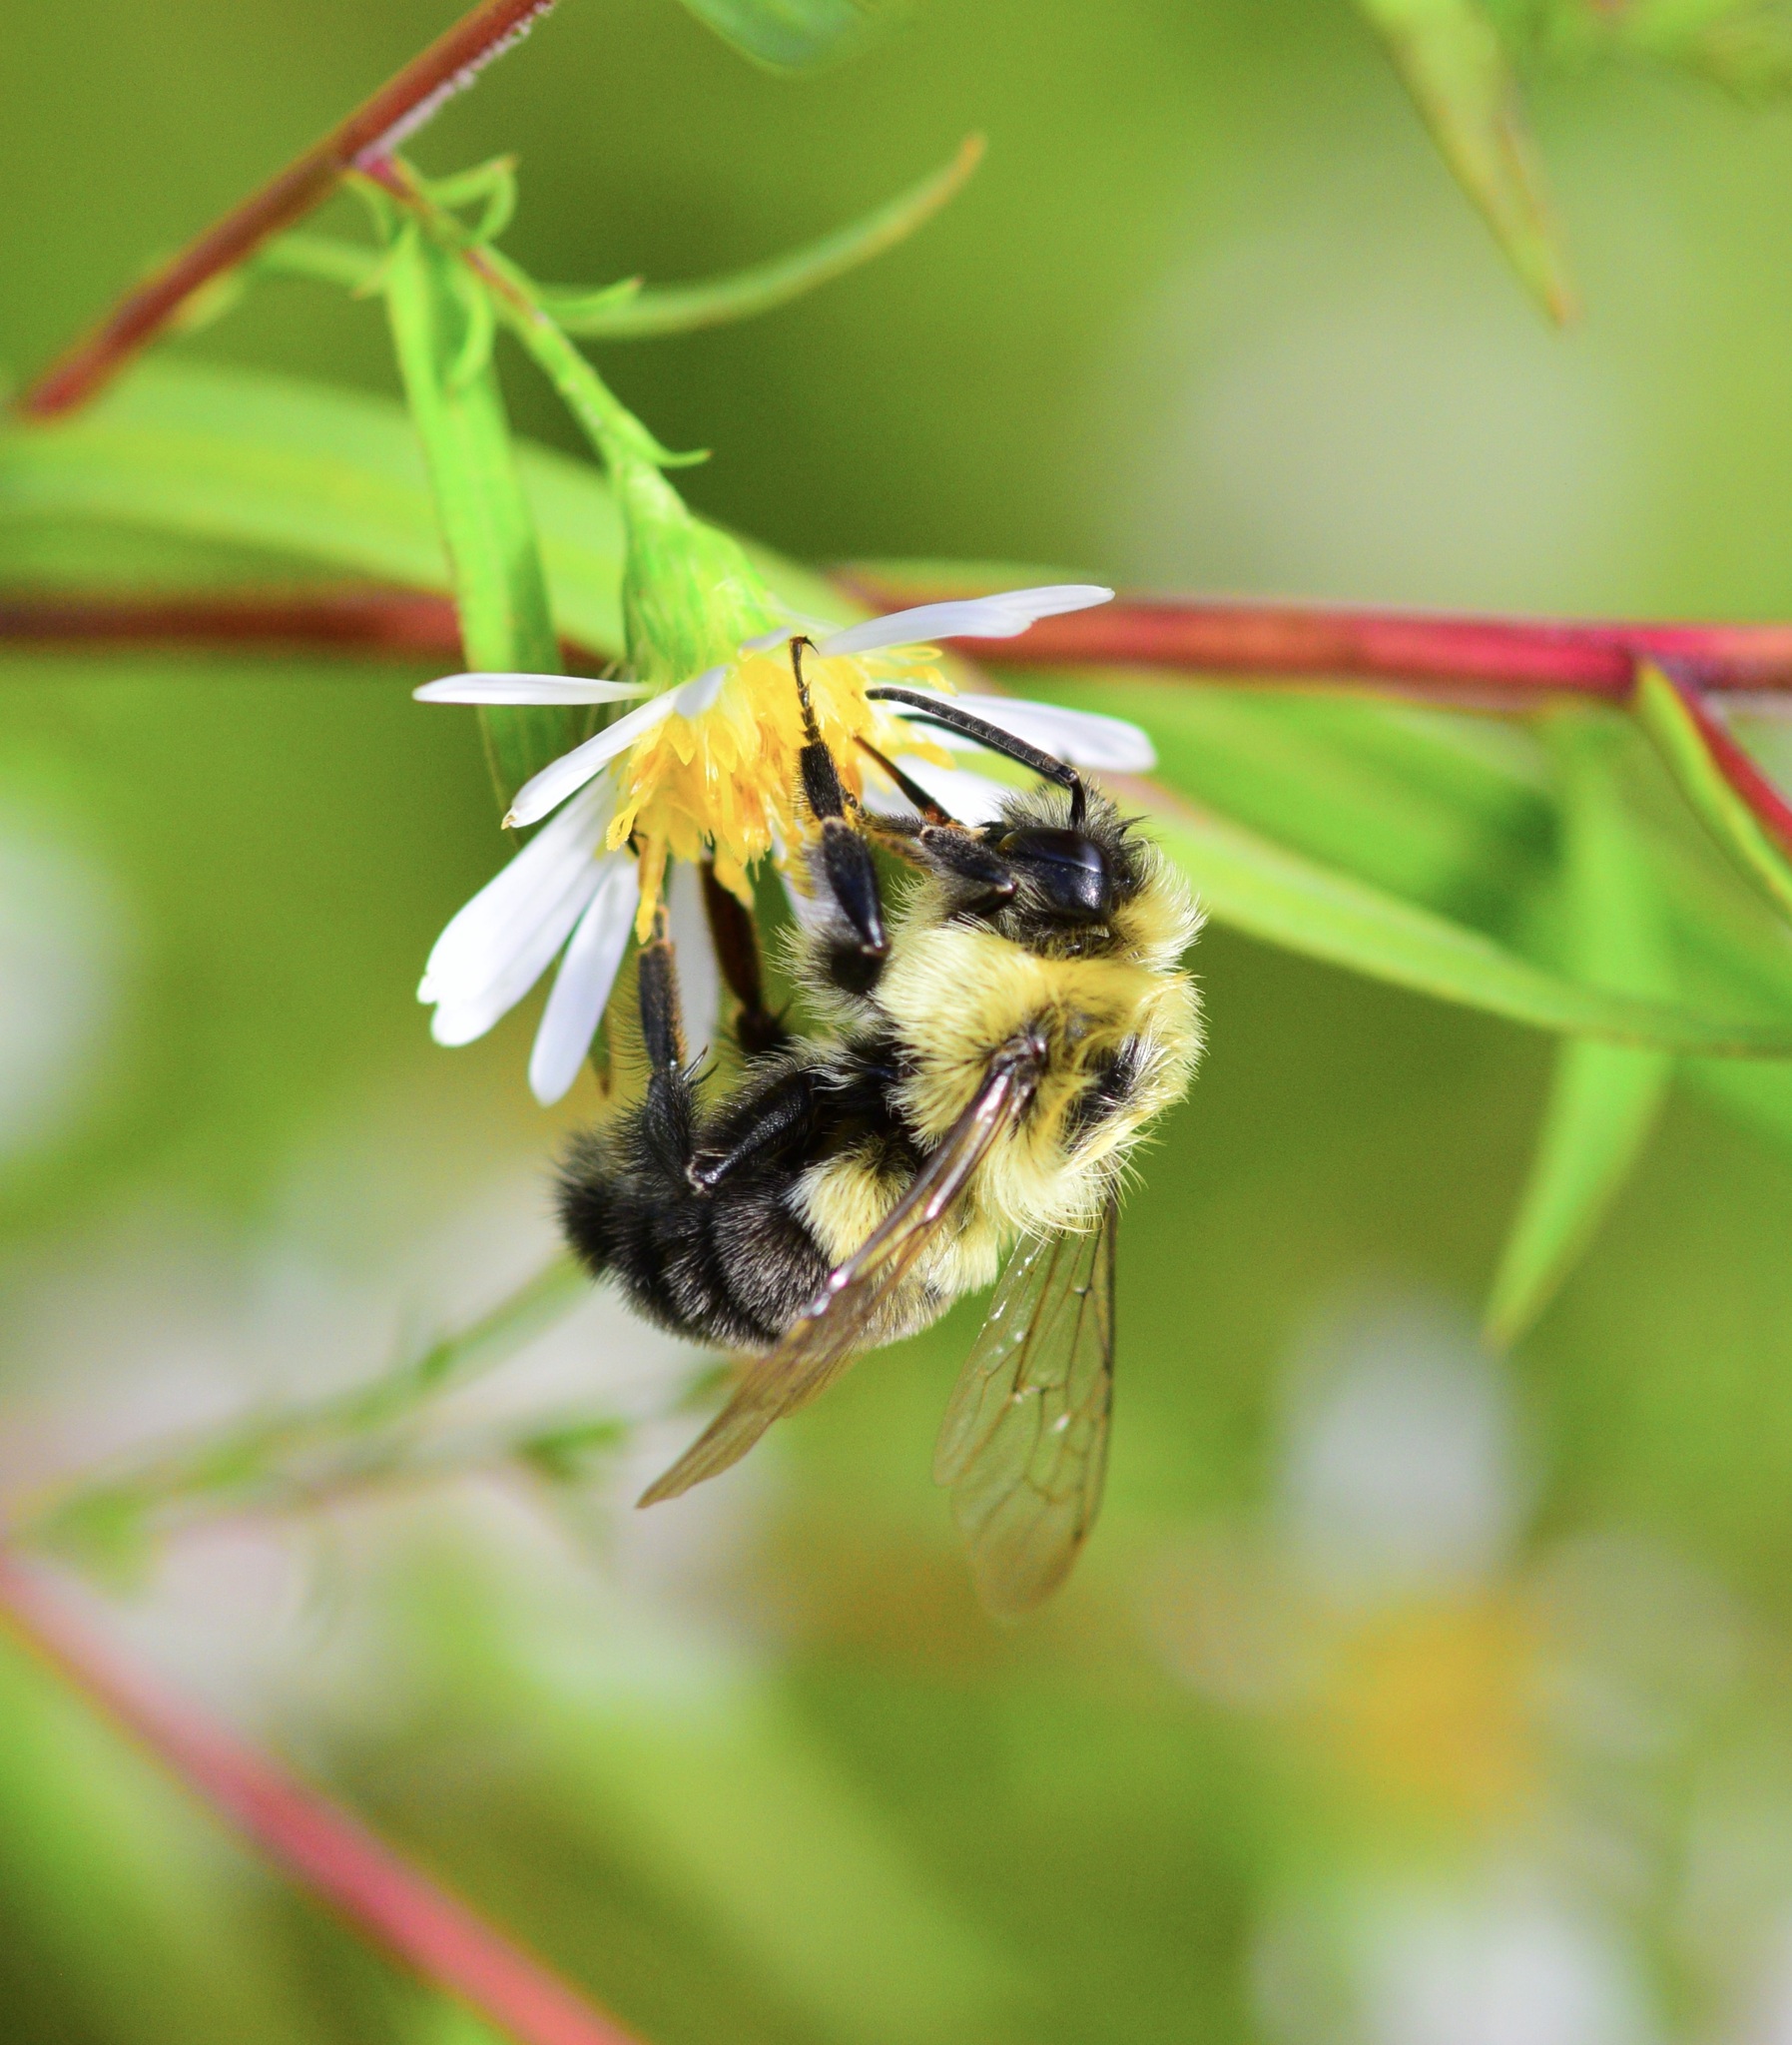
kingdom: Animalia
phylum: Arthropoda
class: Insecta
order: Hymenoptera
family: Apidae
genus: Bombus
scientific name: Bombus impatiens
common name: Common eastern bumble bee
